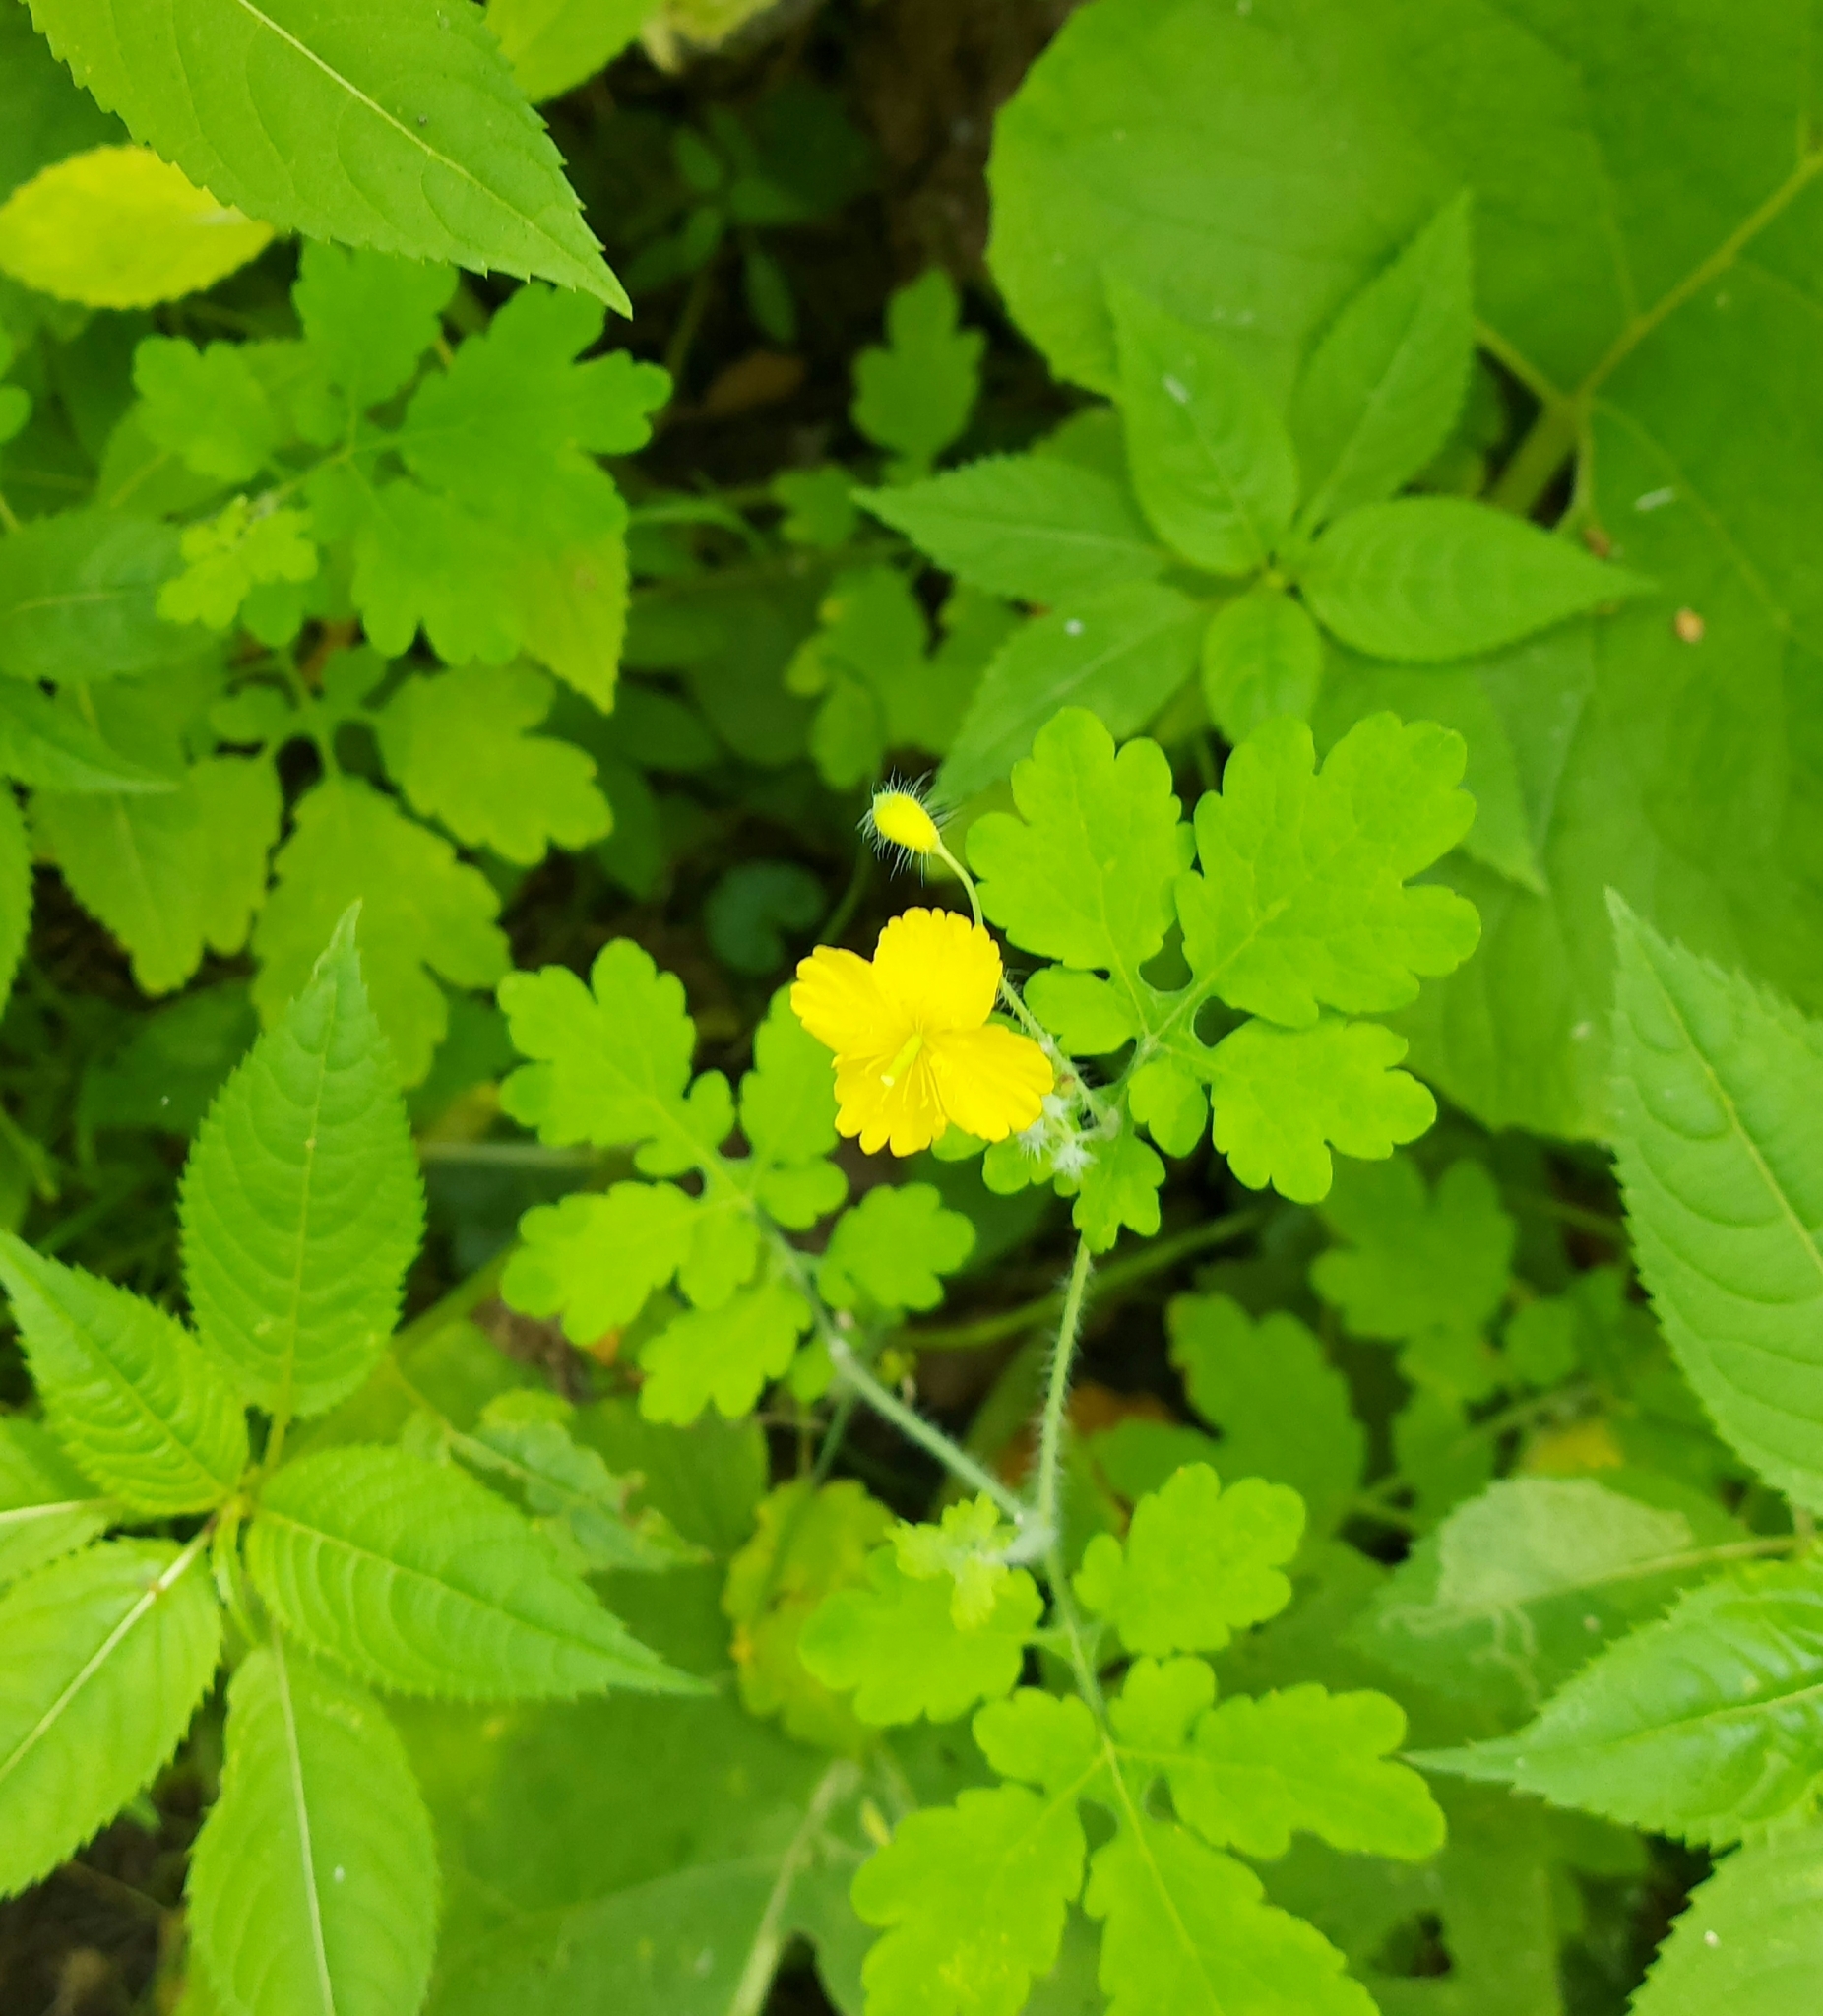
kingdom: Plantae
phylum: Tracheophyta
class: Magnoliopsida
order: Ranunculales
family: Papaveraceae
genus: Chelidonium
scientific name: Chelidonium majus
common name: Greater celandine
